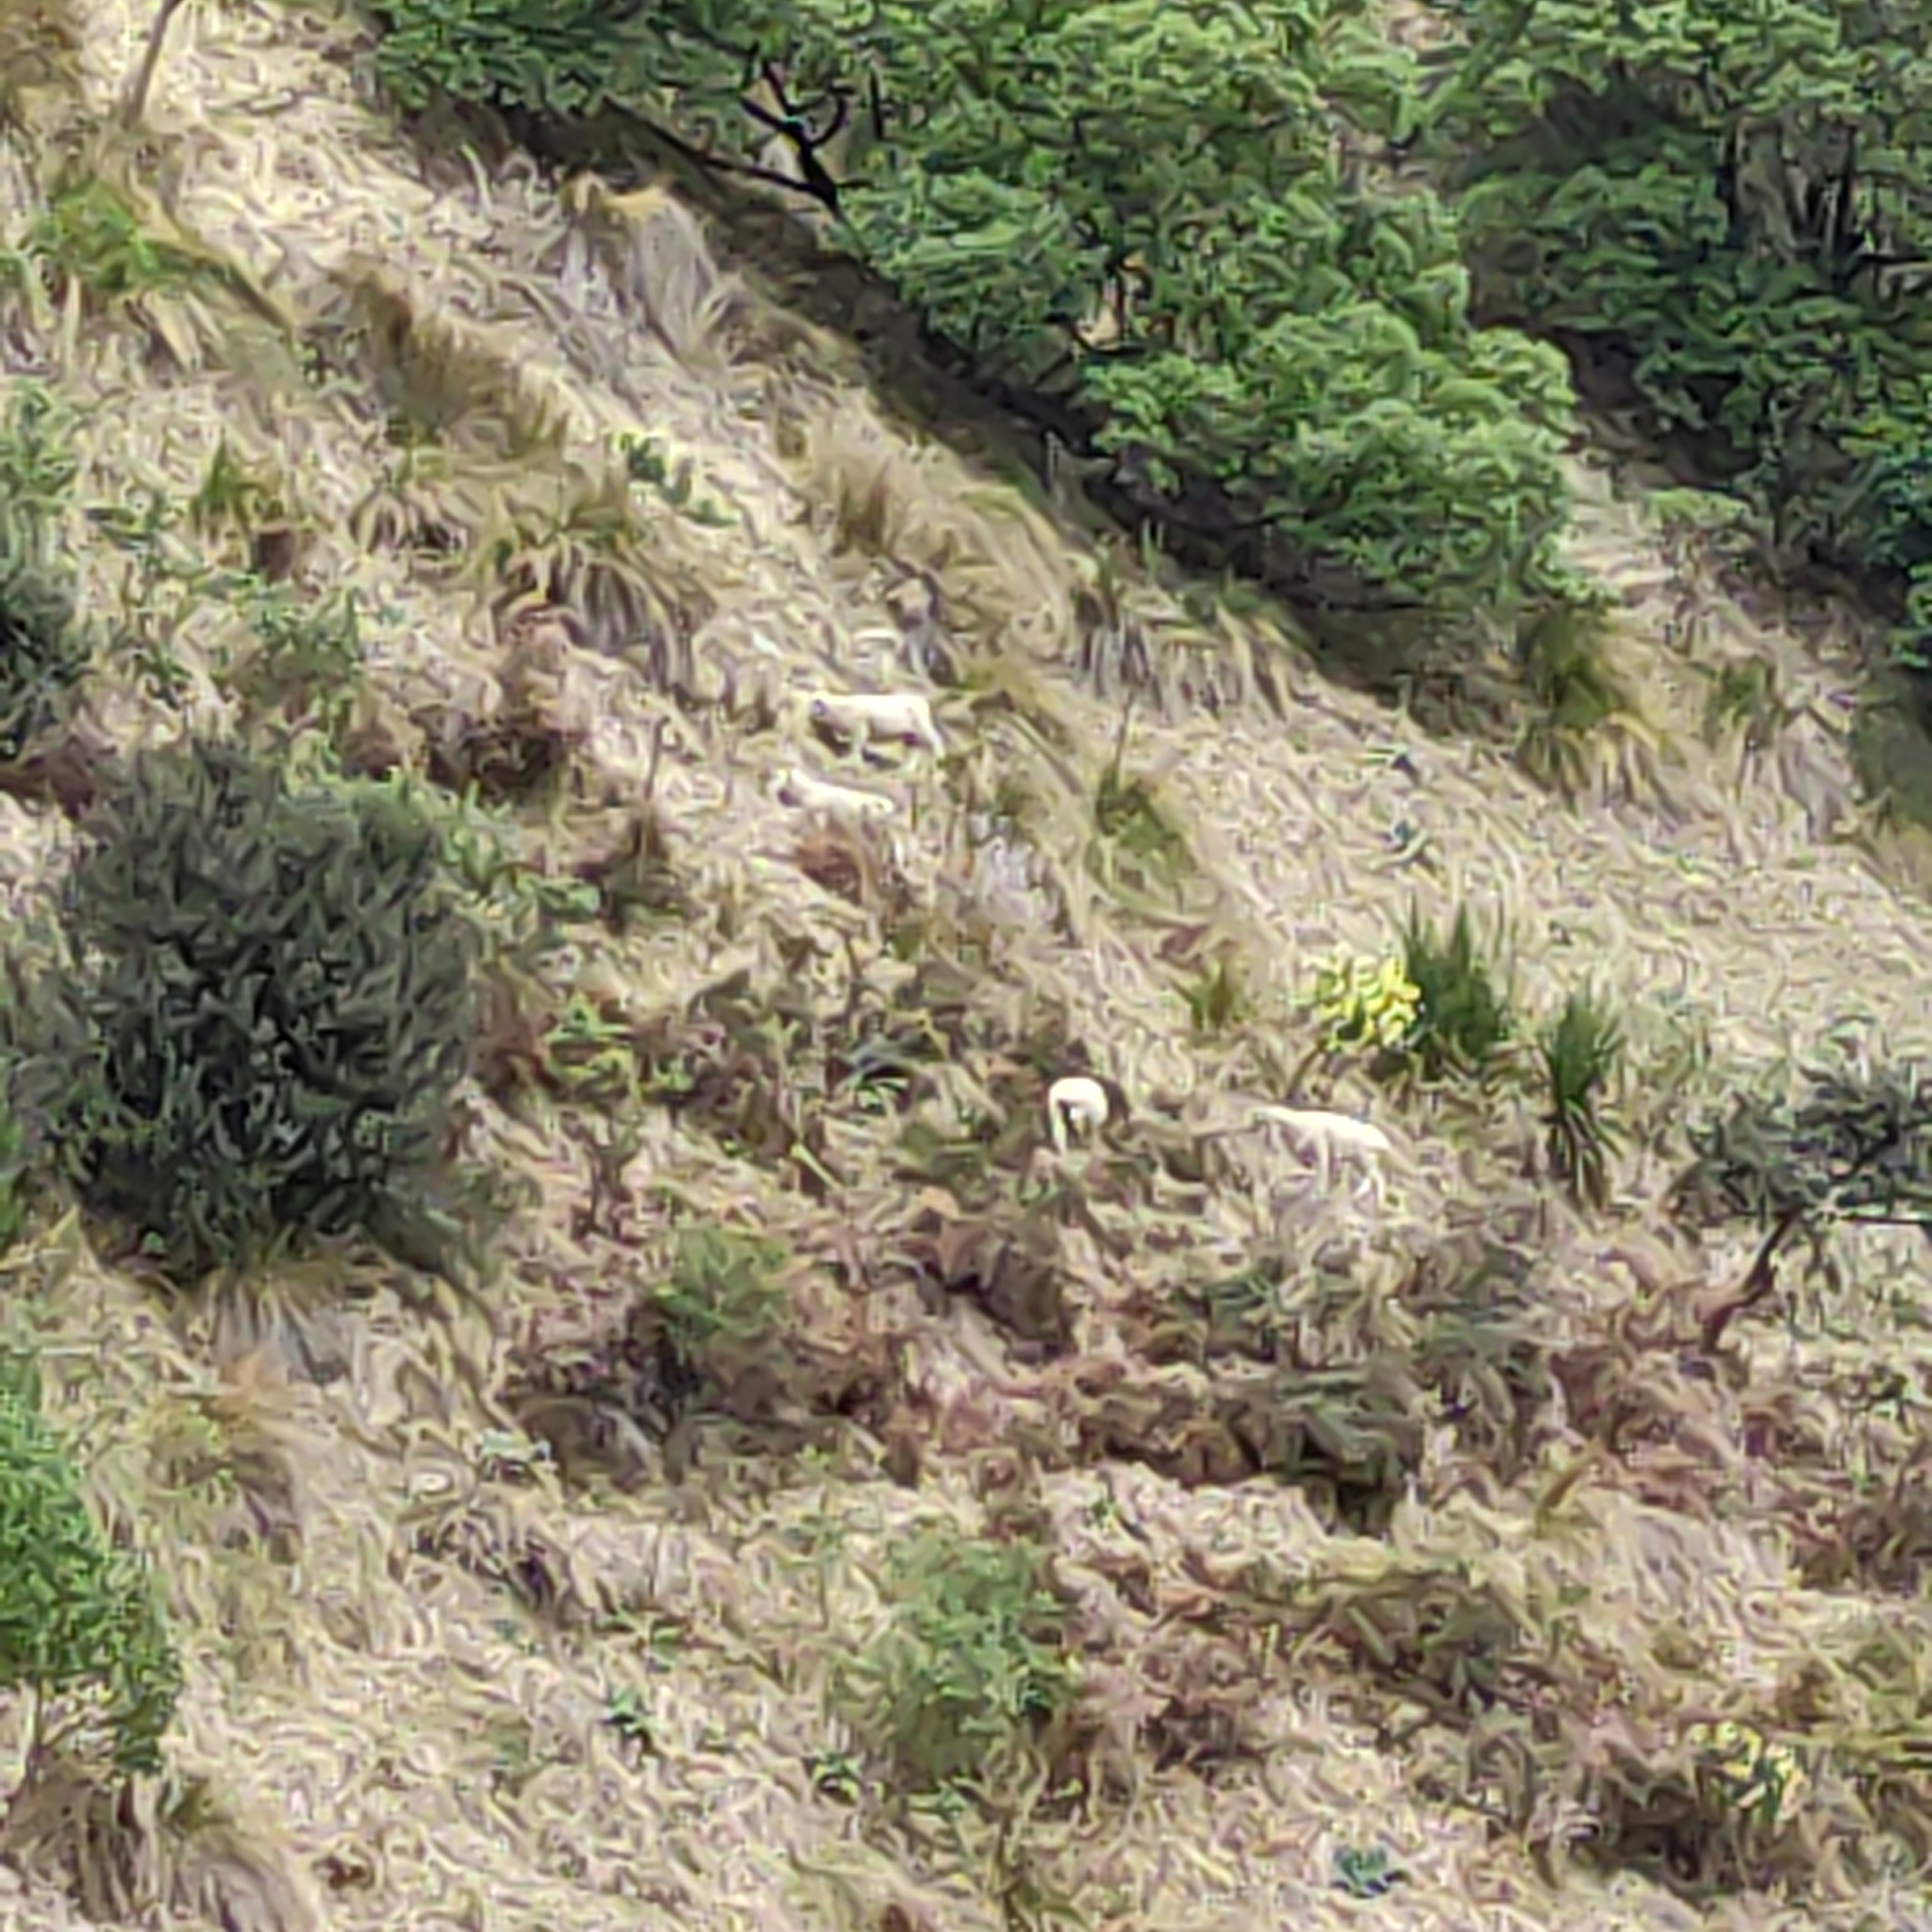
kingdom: Animalia
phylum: Chordata
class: Mammalia
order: Artiodactyla
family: Bovidae
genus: Ovis
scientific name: Ovis aries
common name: Domestic sheep
